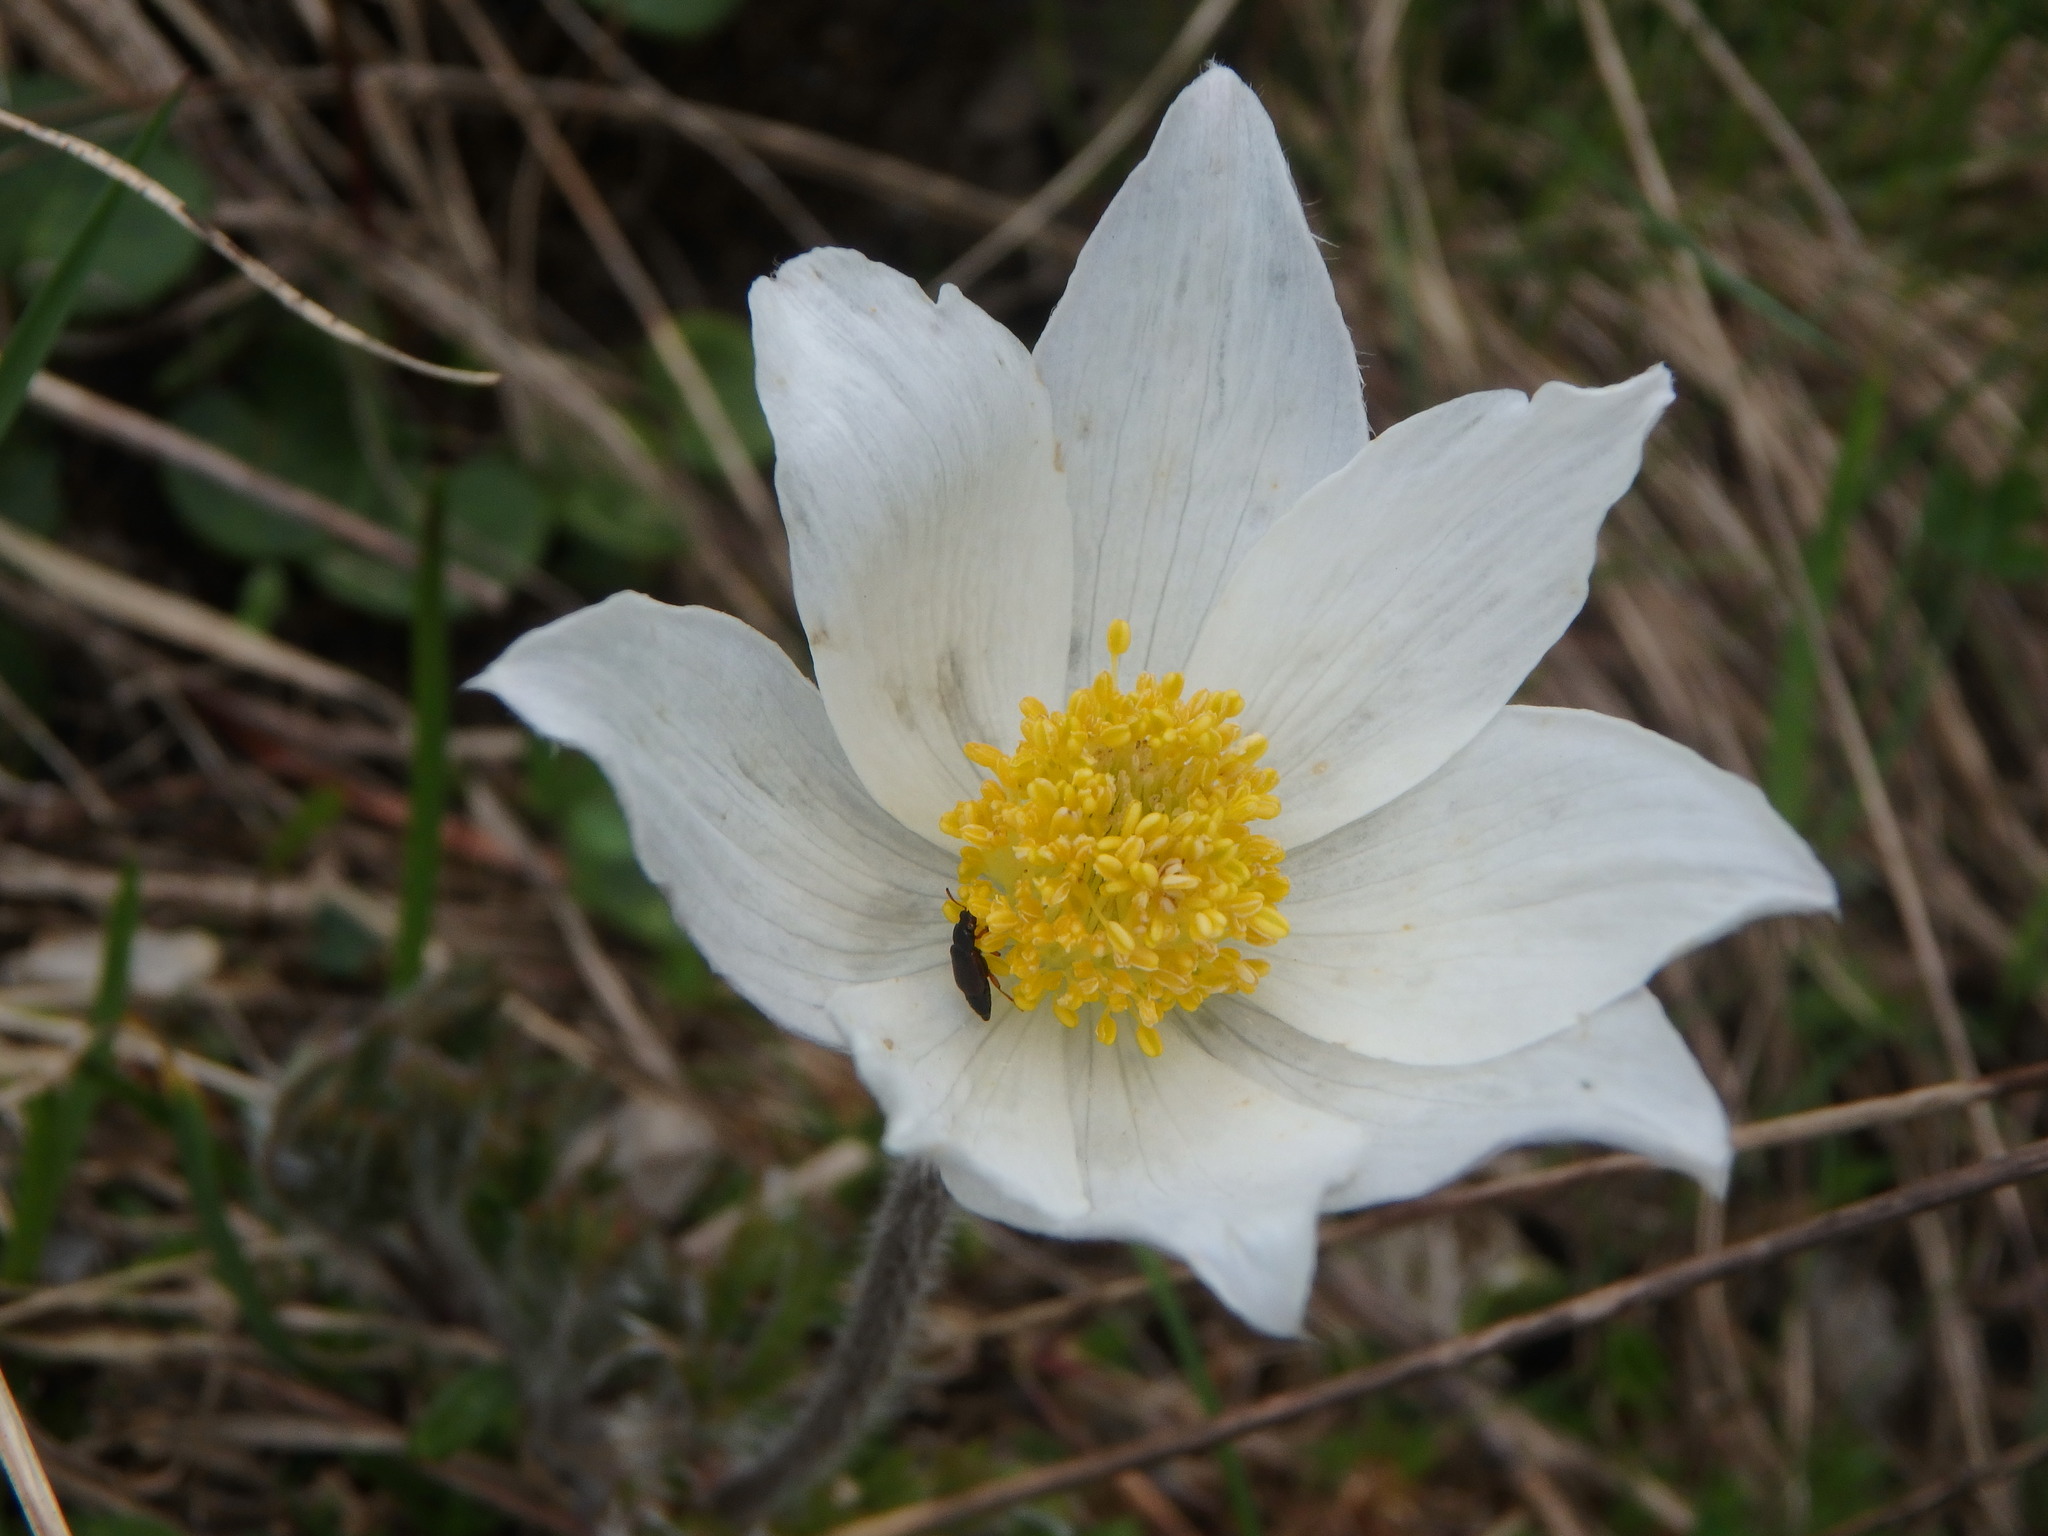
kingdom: Plantae
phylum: Tracheophyta
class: Magnoliopsida
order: Ranunculales
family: Ranunculaceae
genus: Pulsatilla
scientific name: Pulsatilla alpina
